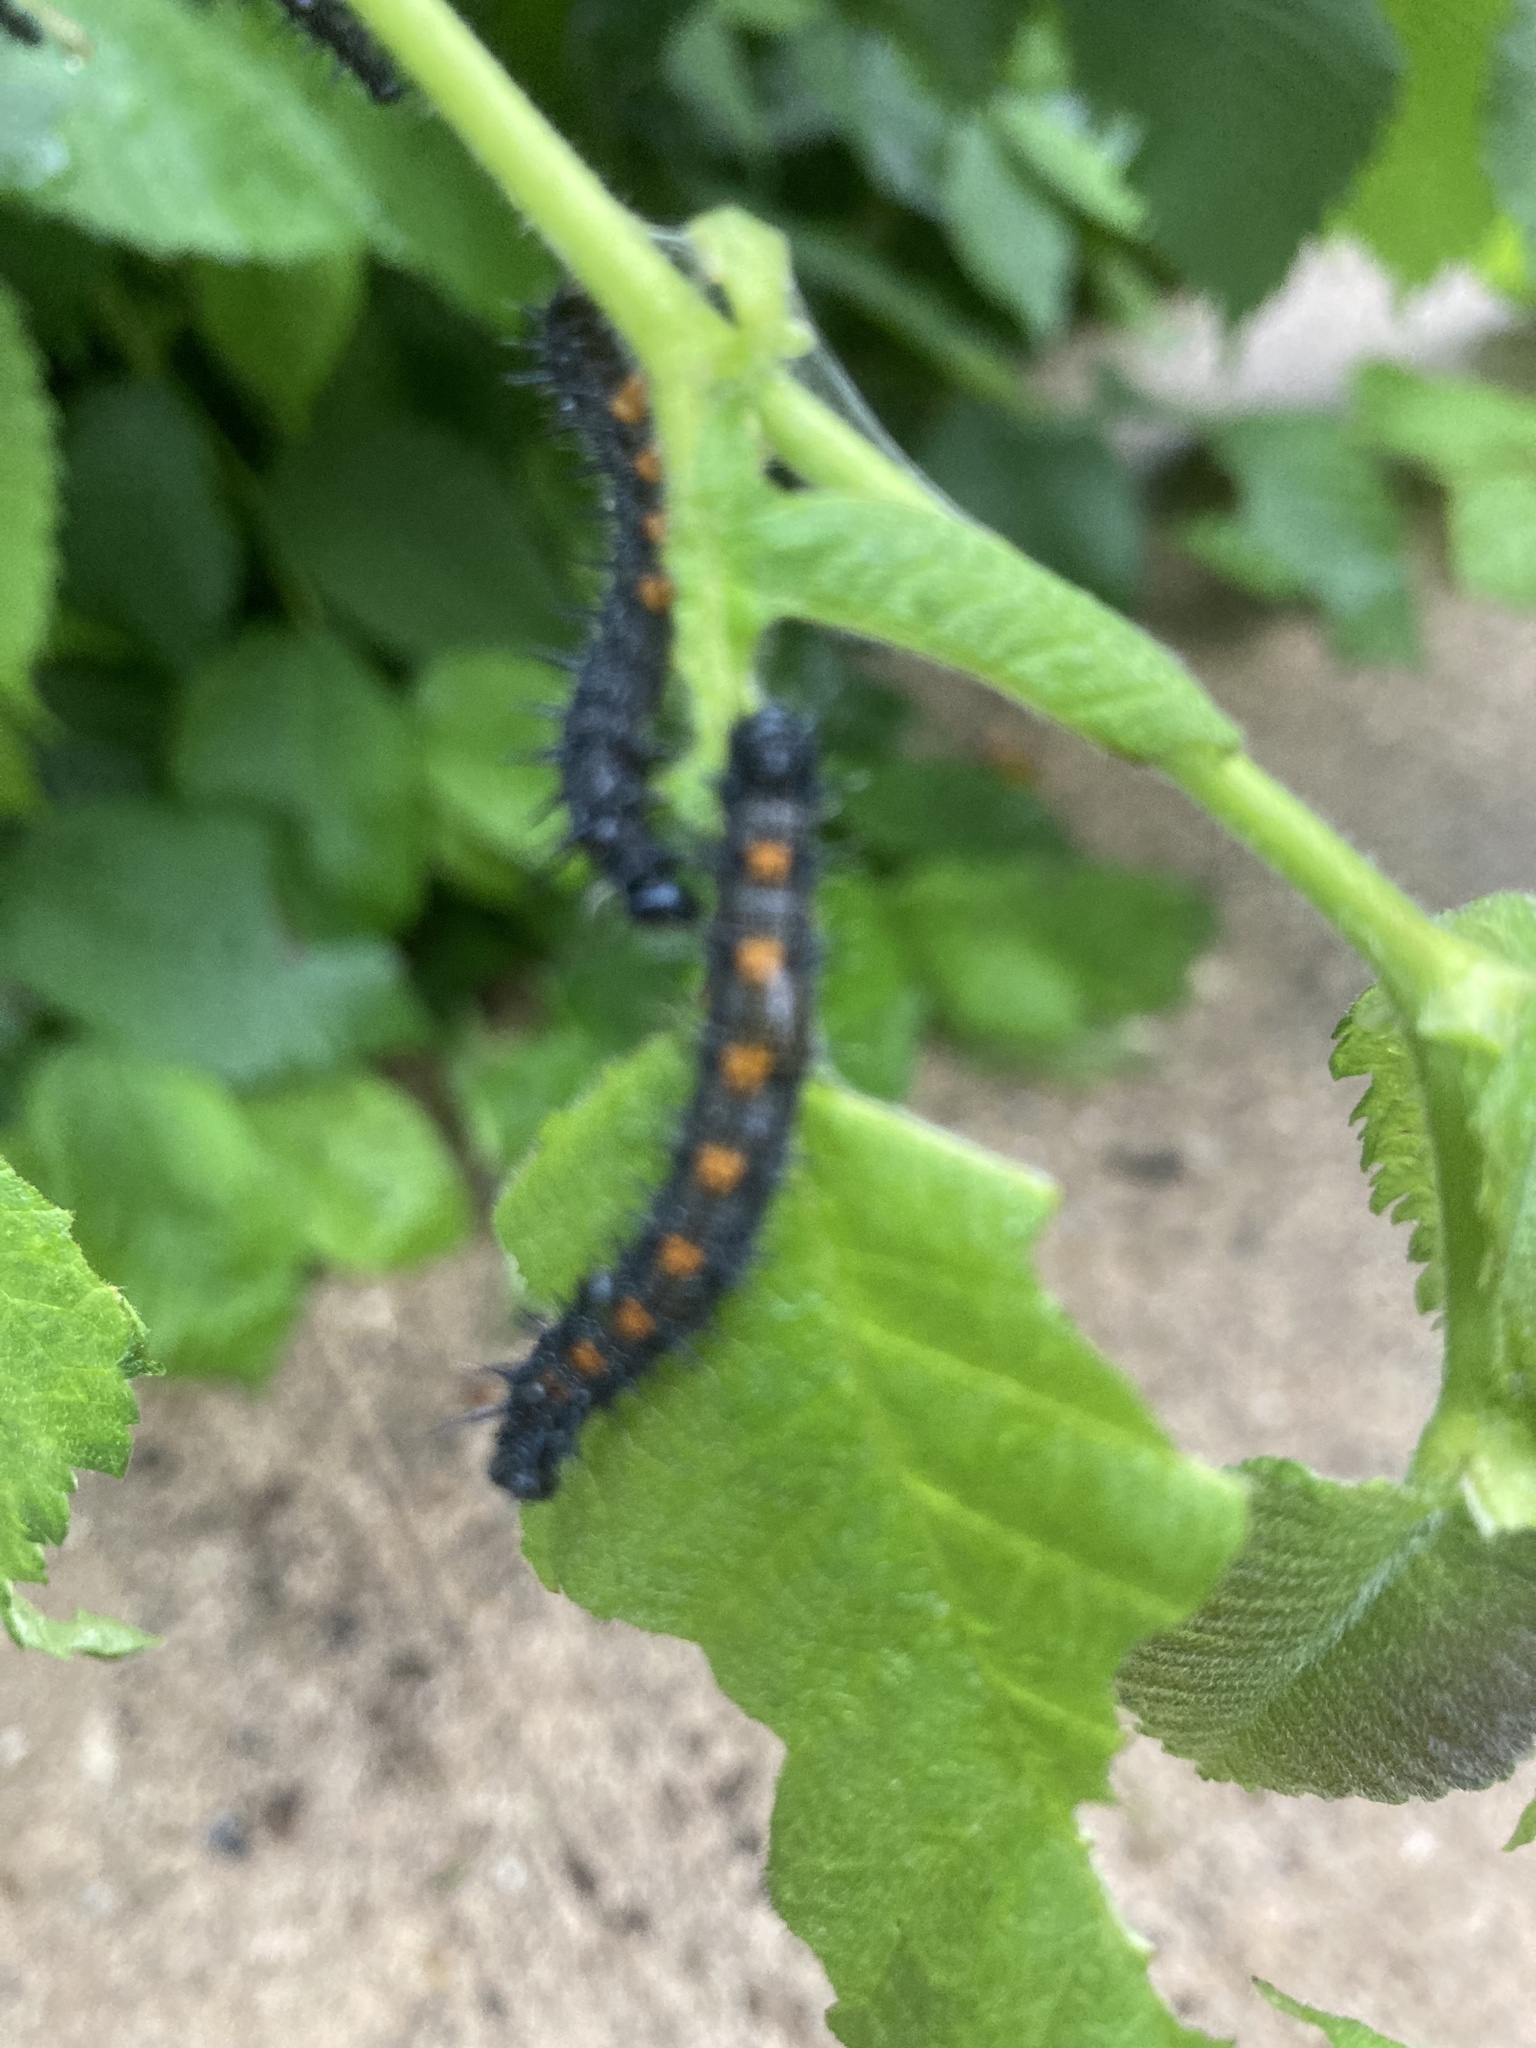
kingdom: Animalia
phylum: Arthropoda
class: Insecta
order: Lepidoptera
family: Nymphalidae
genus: Nymphalis
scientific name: Nymphalis antiopa
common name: Camberwell beauty
